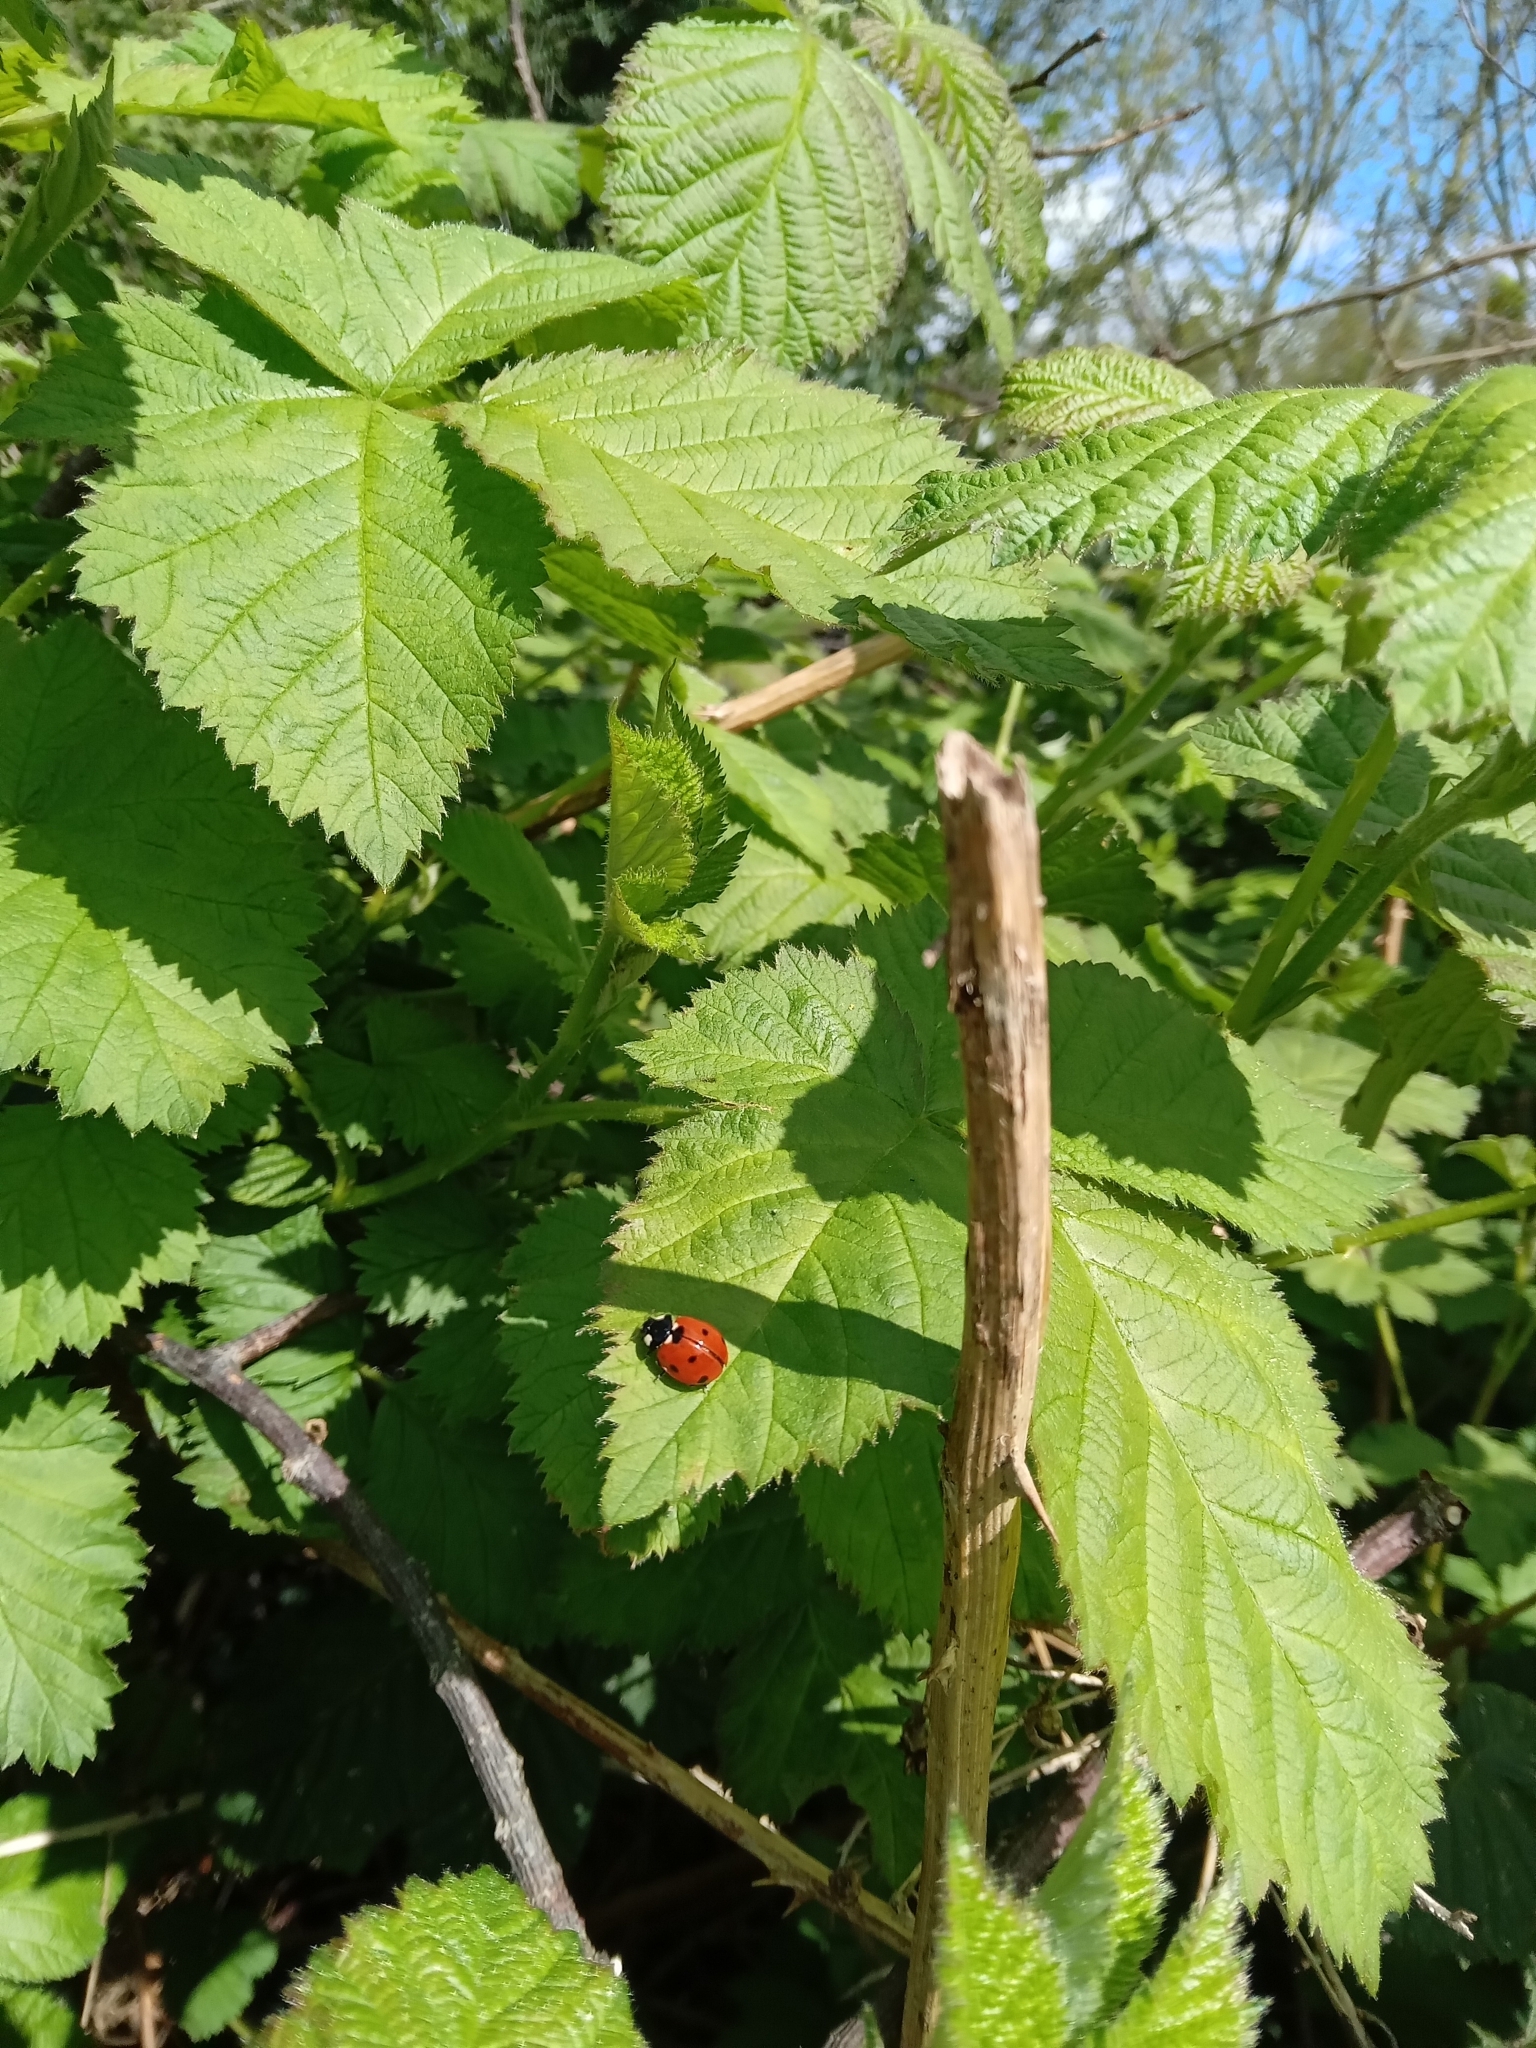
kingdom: Animalia
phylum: Arthropoda
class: Insecta
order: Coleoptera
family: Coccinellidae
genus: Coccinella
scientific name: Coccinella septempunctata
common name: Sevenspotted lady beetle
